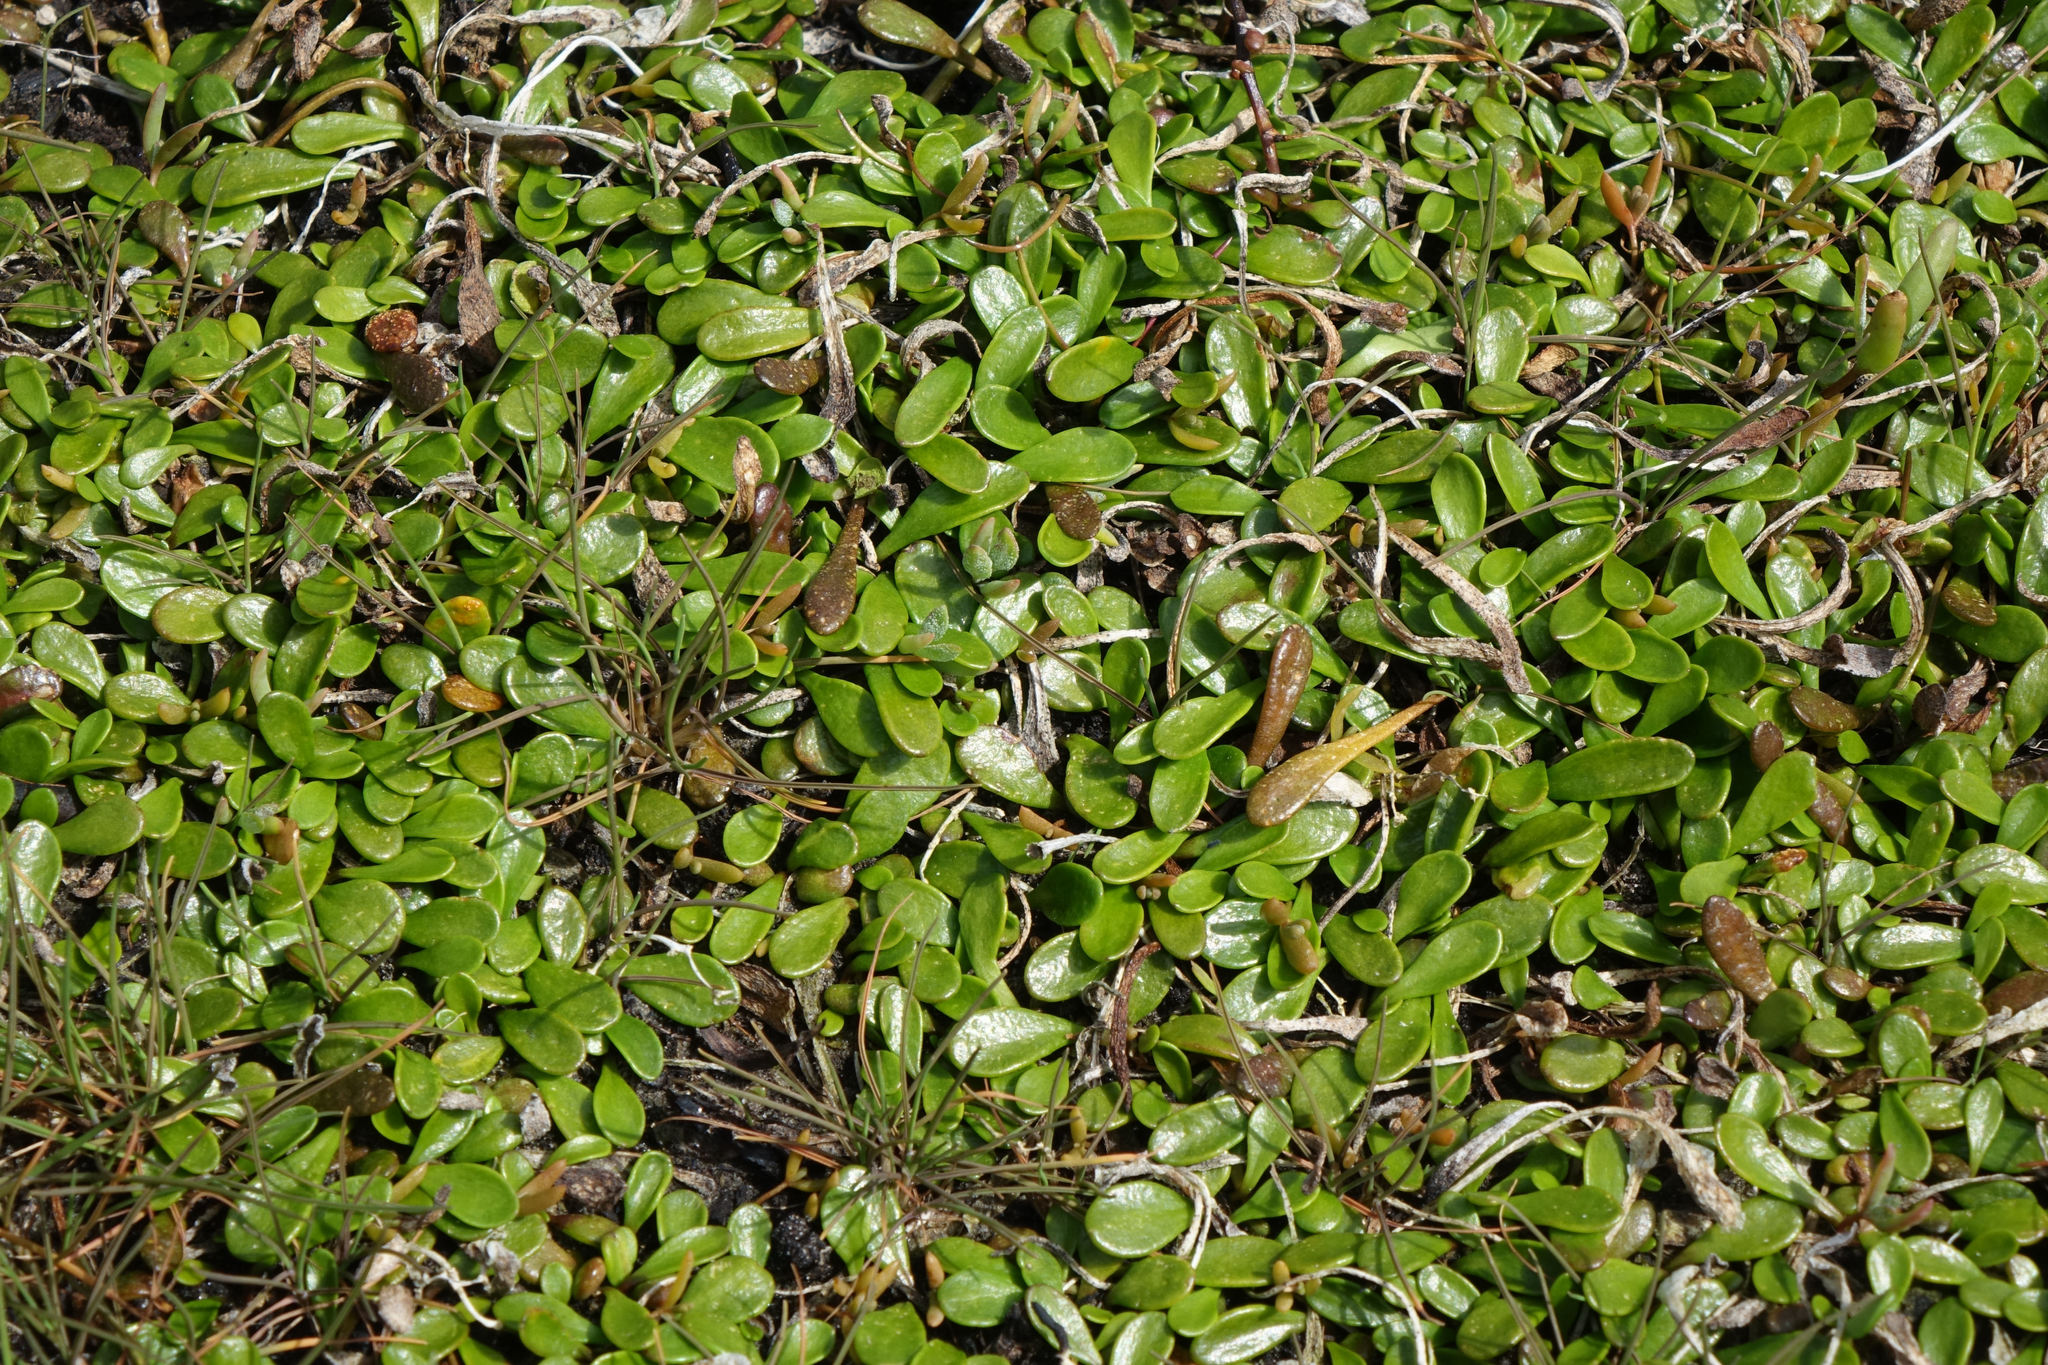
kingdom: Plantae
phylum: Tracheophyta
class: Magnoliopsida
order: Asterales
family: Goodeniaceae
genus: Goodenia
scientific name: Goodenia radicans
